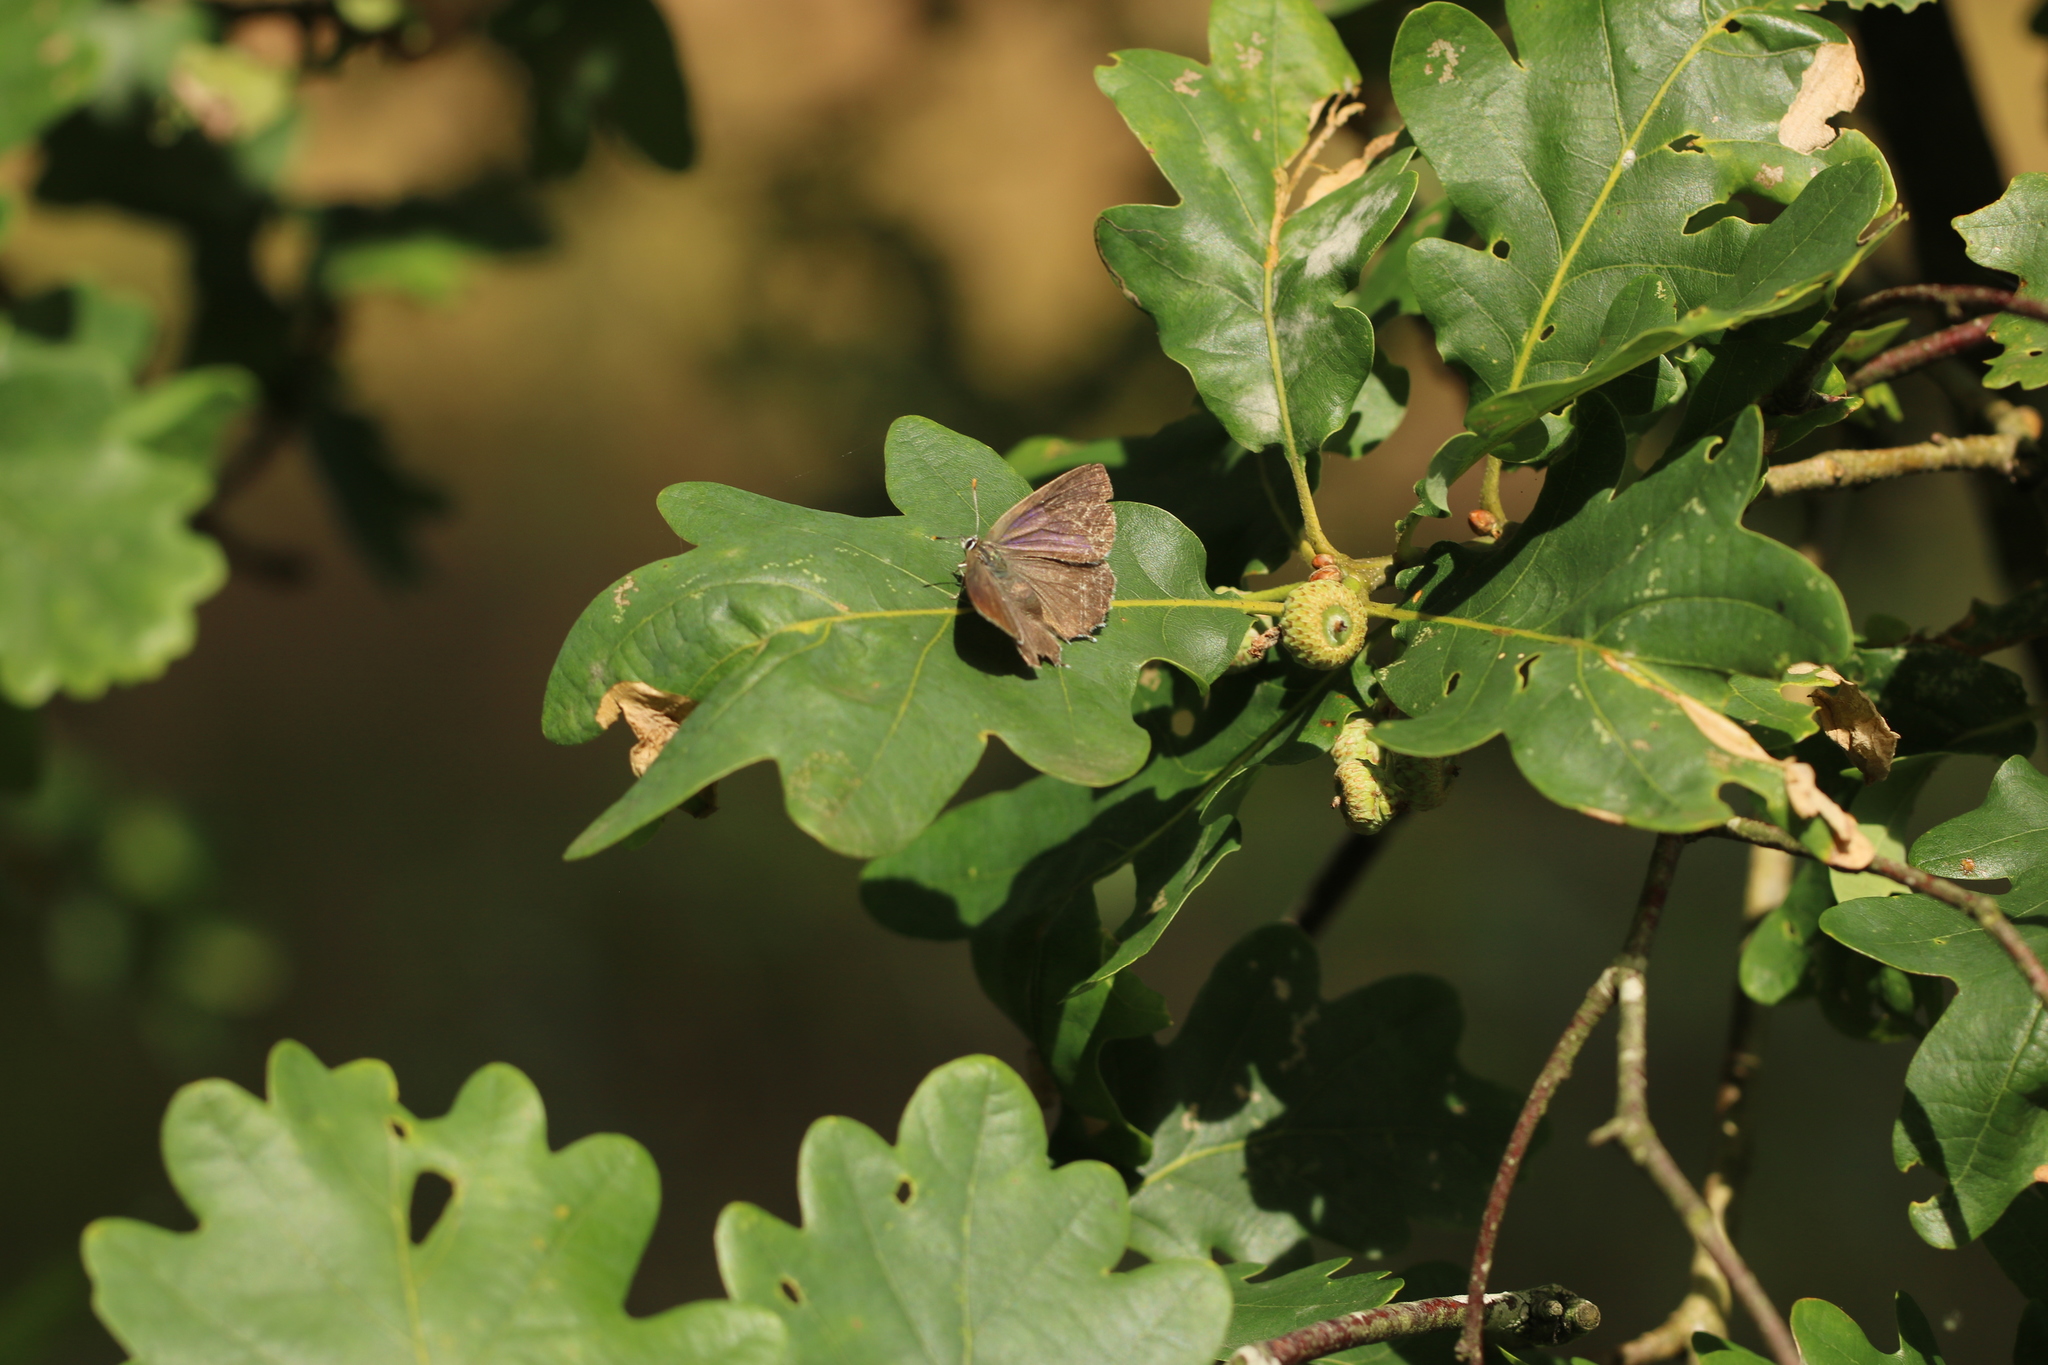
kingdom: Animalia
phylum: Arthropoda
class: Insecta
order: Lepidoptera
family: Lycaenidae
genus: Quercusia
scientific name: Quercusia quercus
